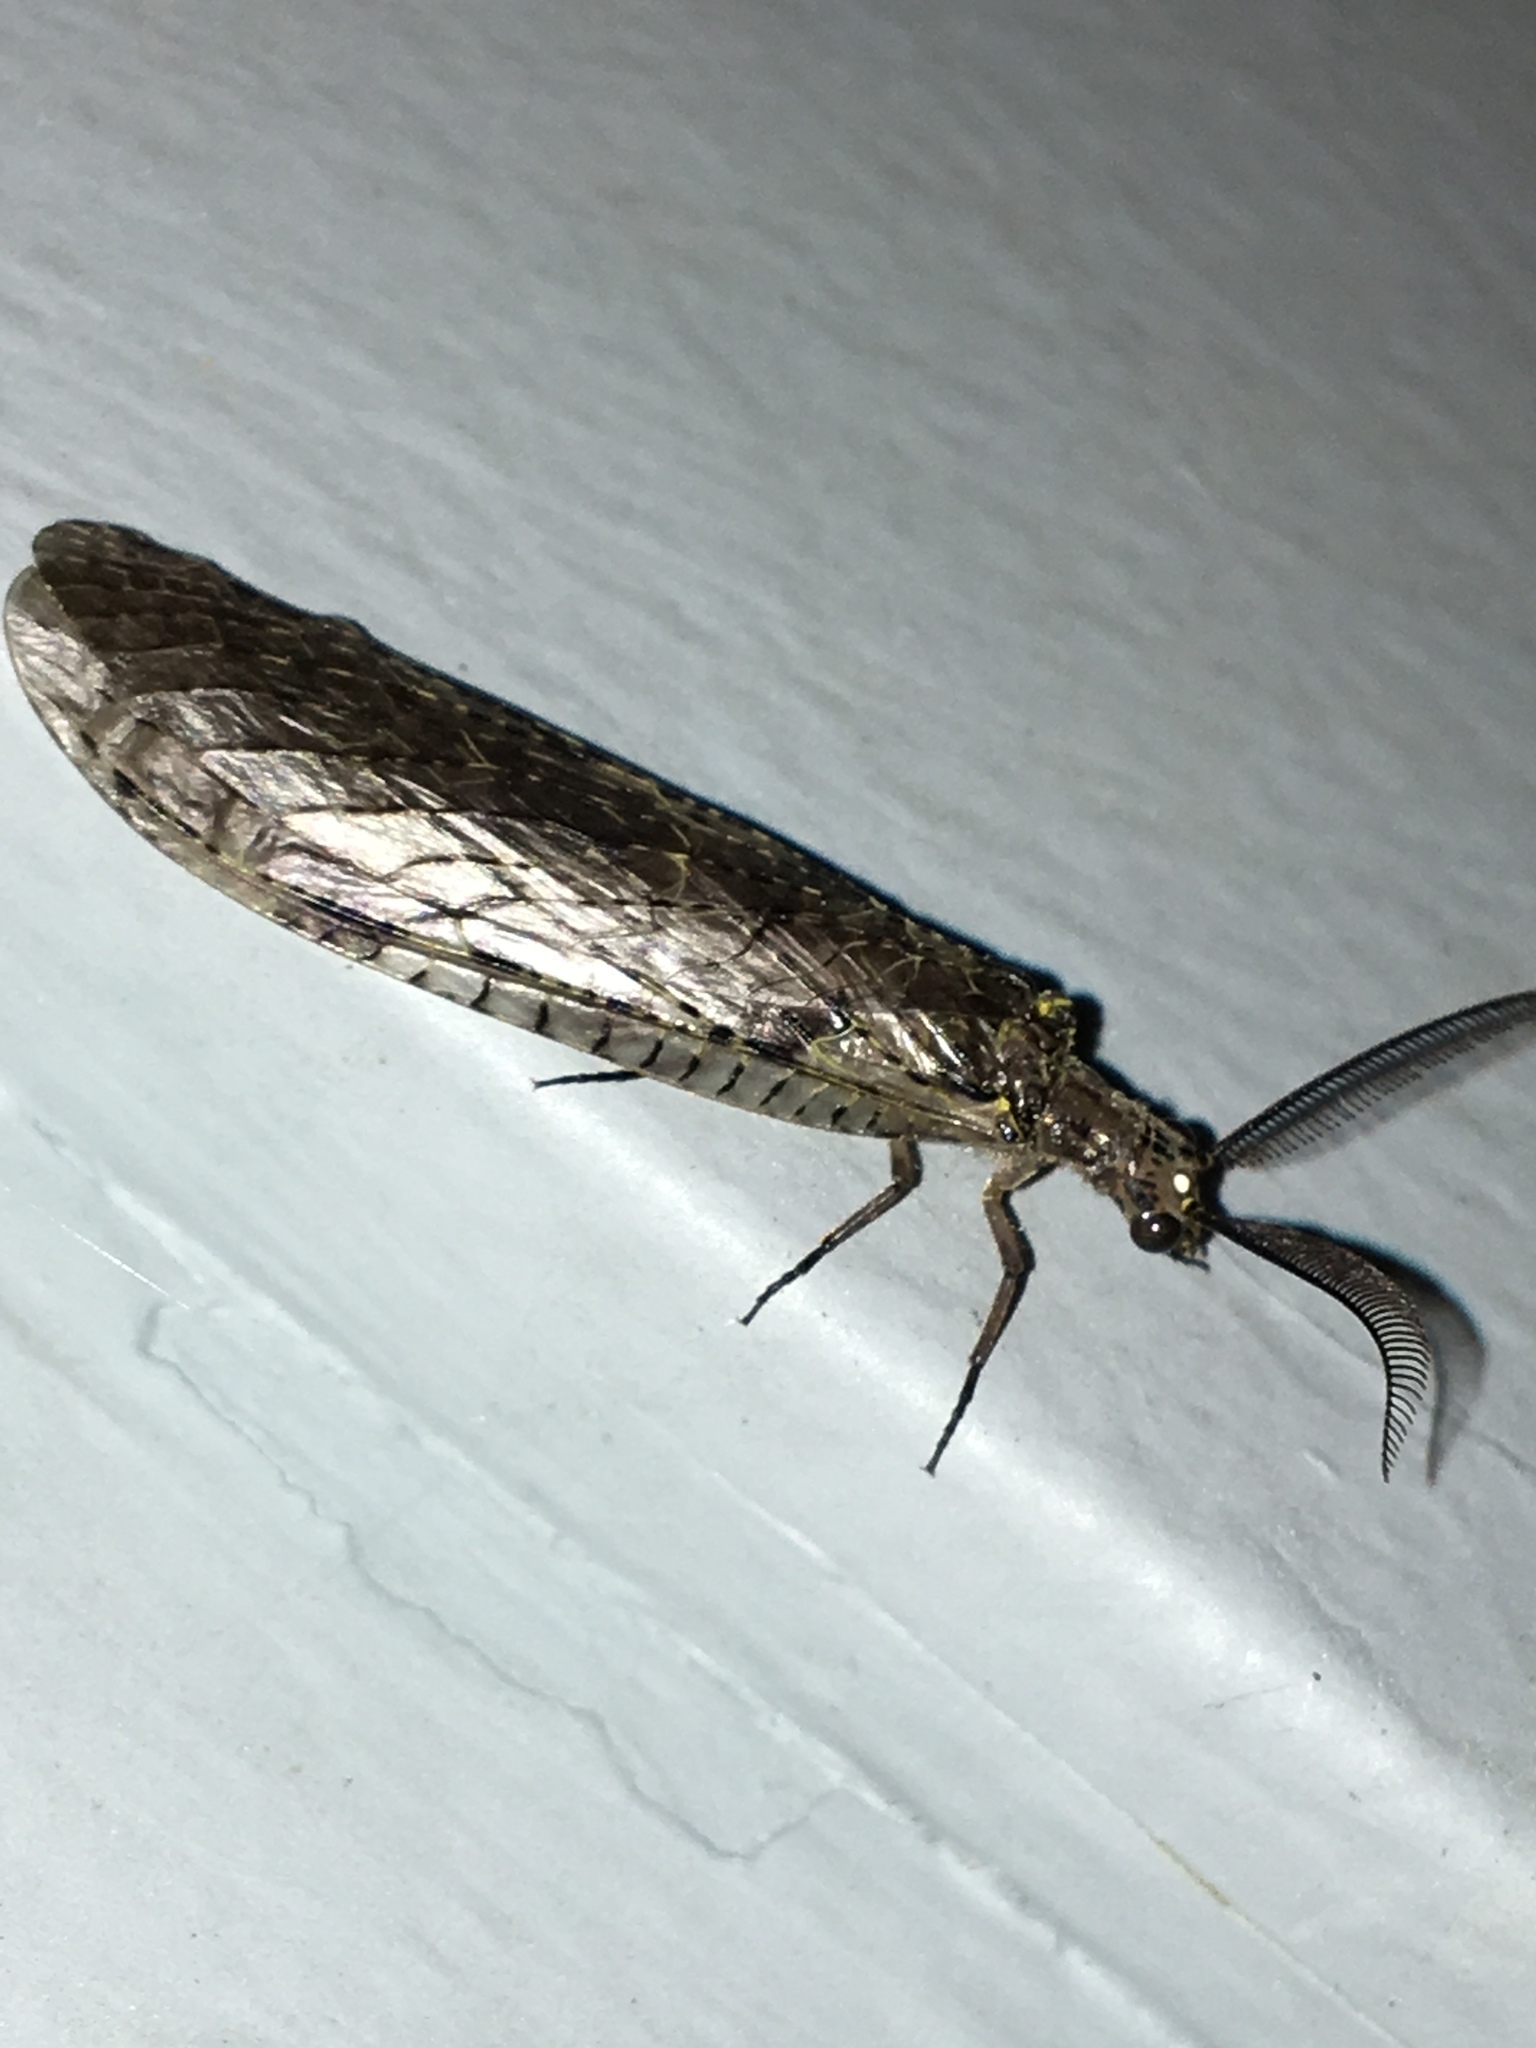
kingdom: Animalia
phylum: Arthropoda
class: Insecta
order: Megaloptera
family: Corydalidae
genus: Chauliodes
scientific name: Chauliodes rastricornis
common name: Spring fishfly
